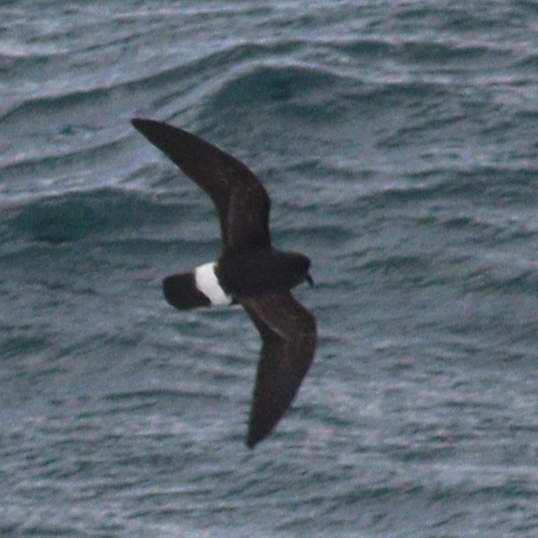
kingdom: Animalia
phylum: Chordata
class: Aves
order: Procellariiformes
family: Hydrobatidae
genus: Hydrobates
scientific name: Hydrobates pelagicus
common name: European storm-petrel
